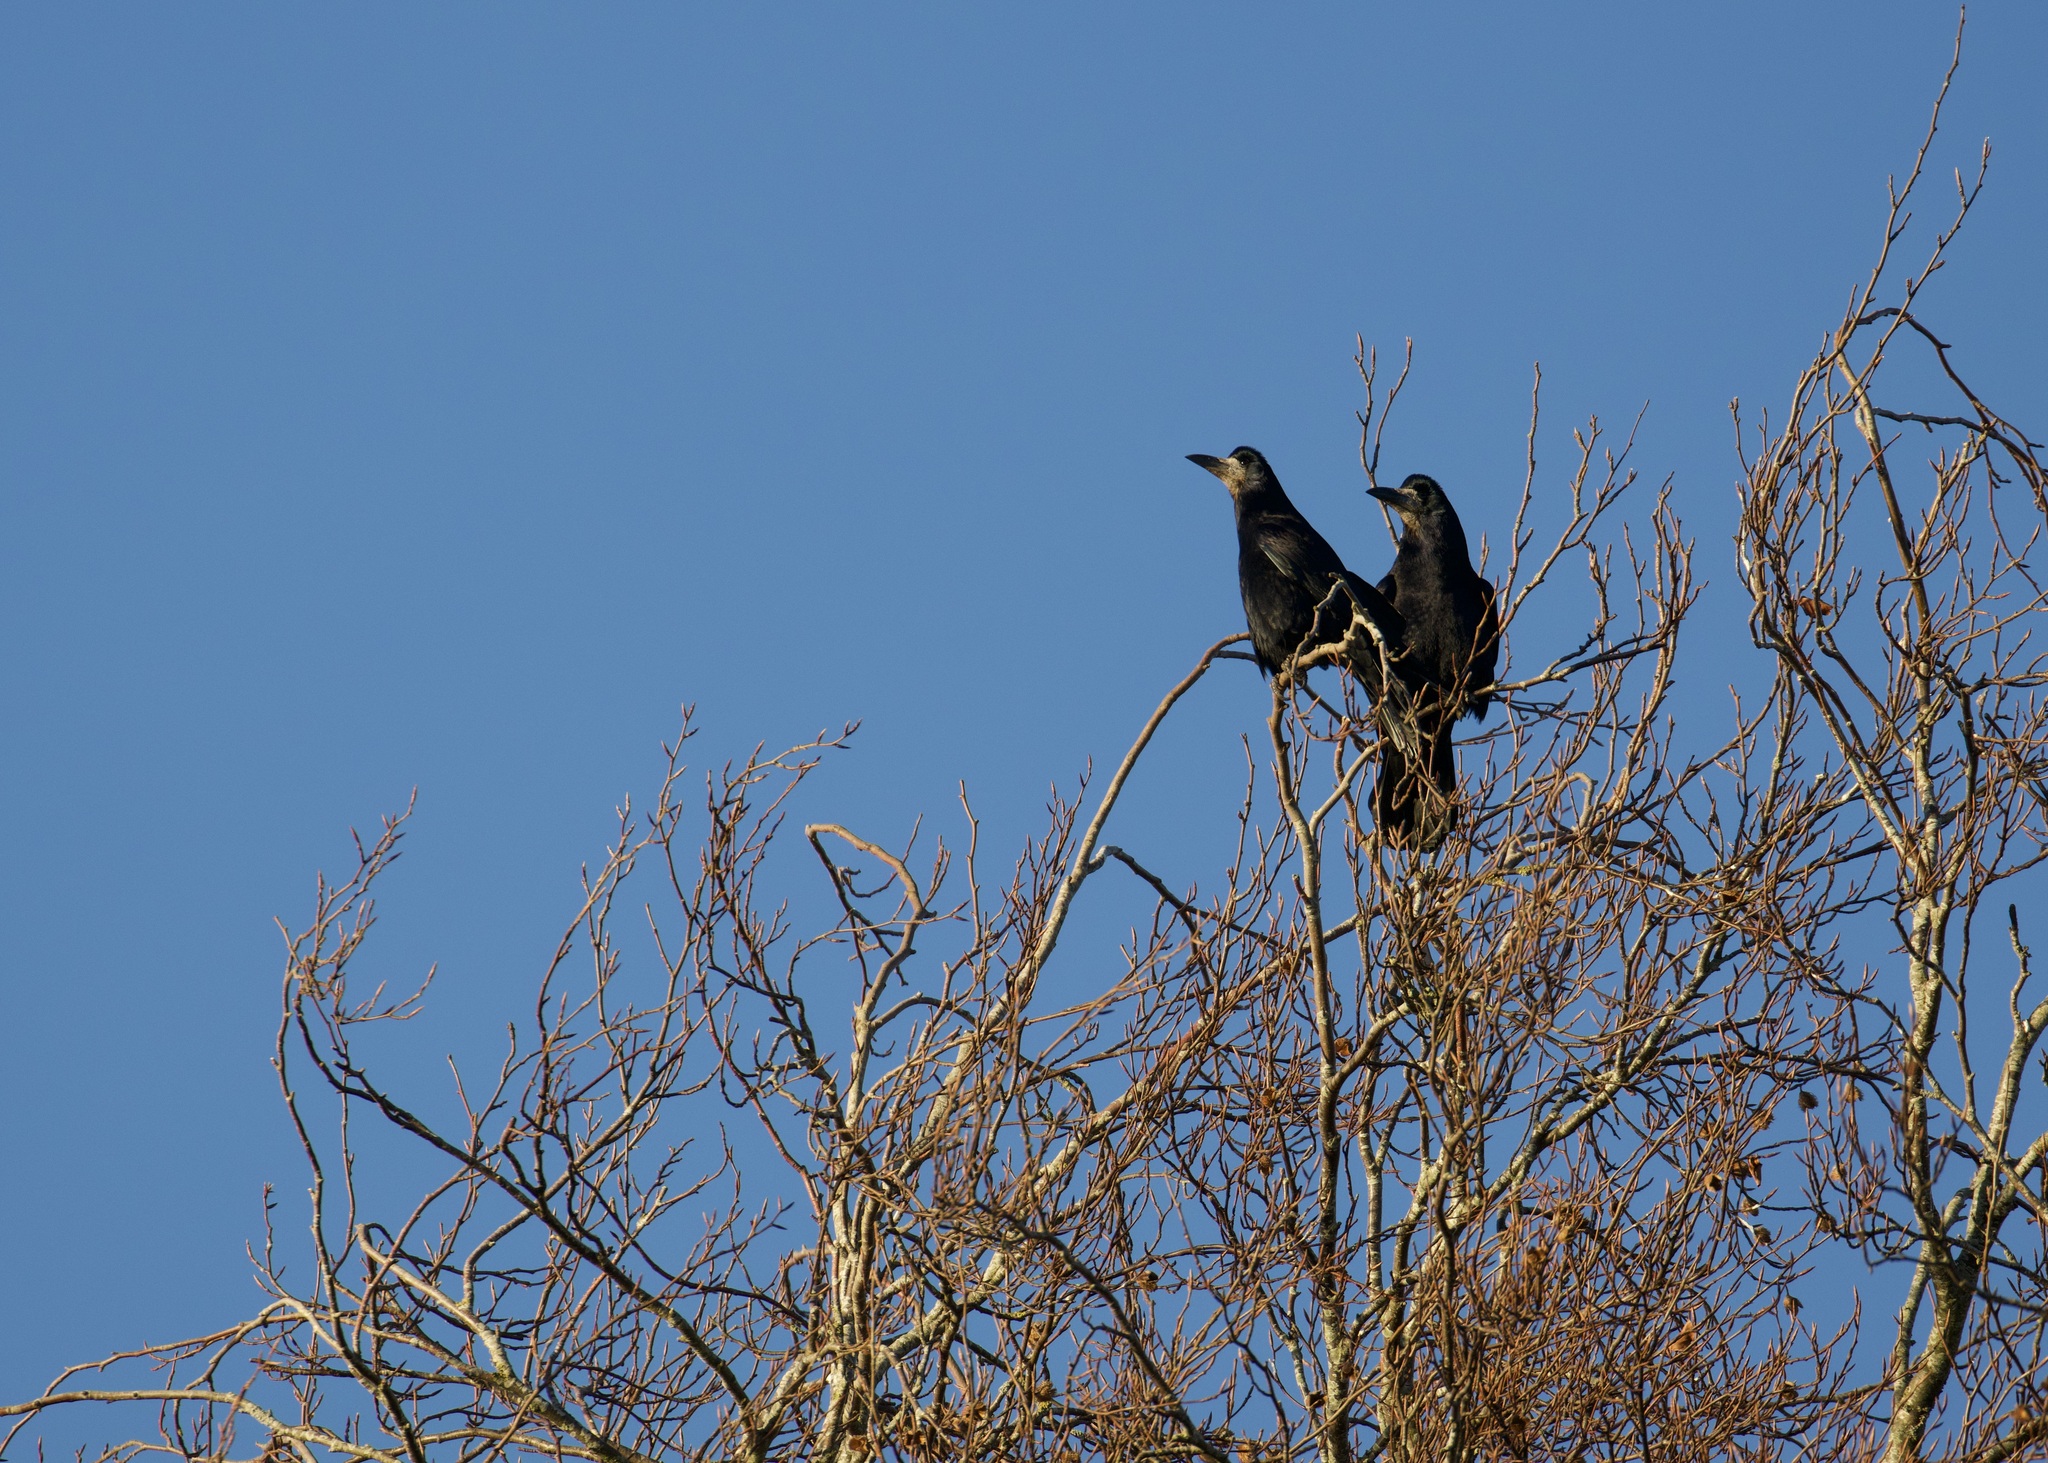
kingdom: Animalia
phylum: Chordata
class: Aves
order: Passeriformes
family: Corvidae
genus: Corvus
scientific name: Corvus frugilegus
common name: Rook
